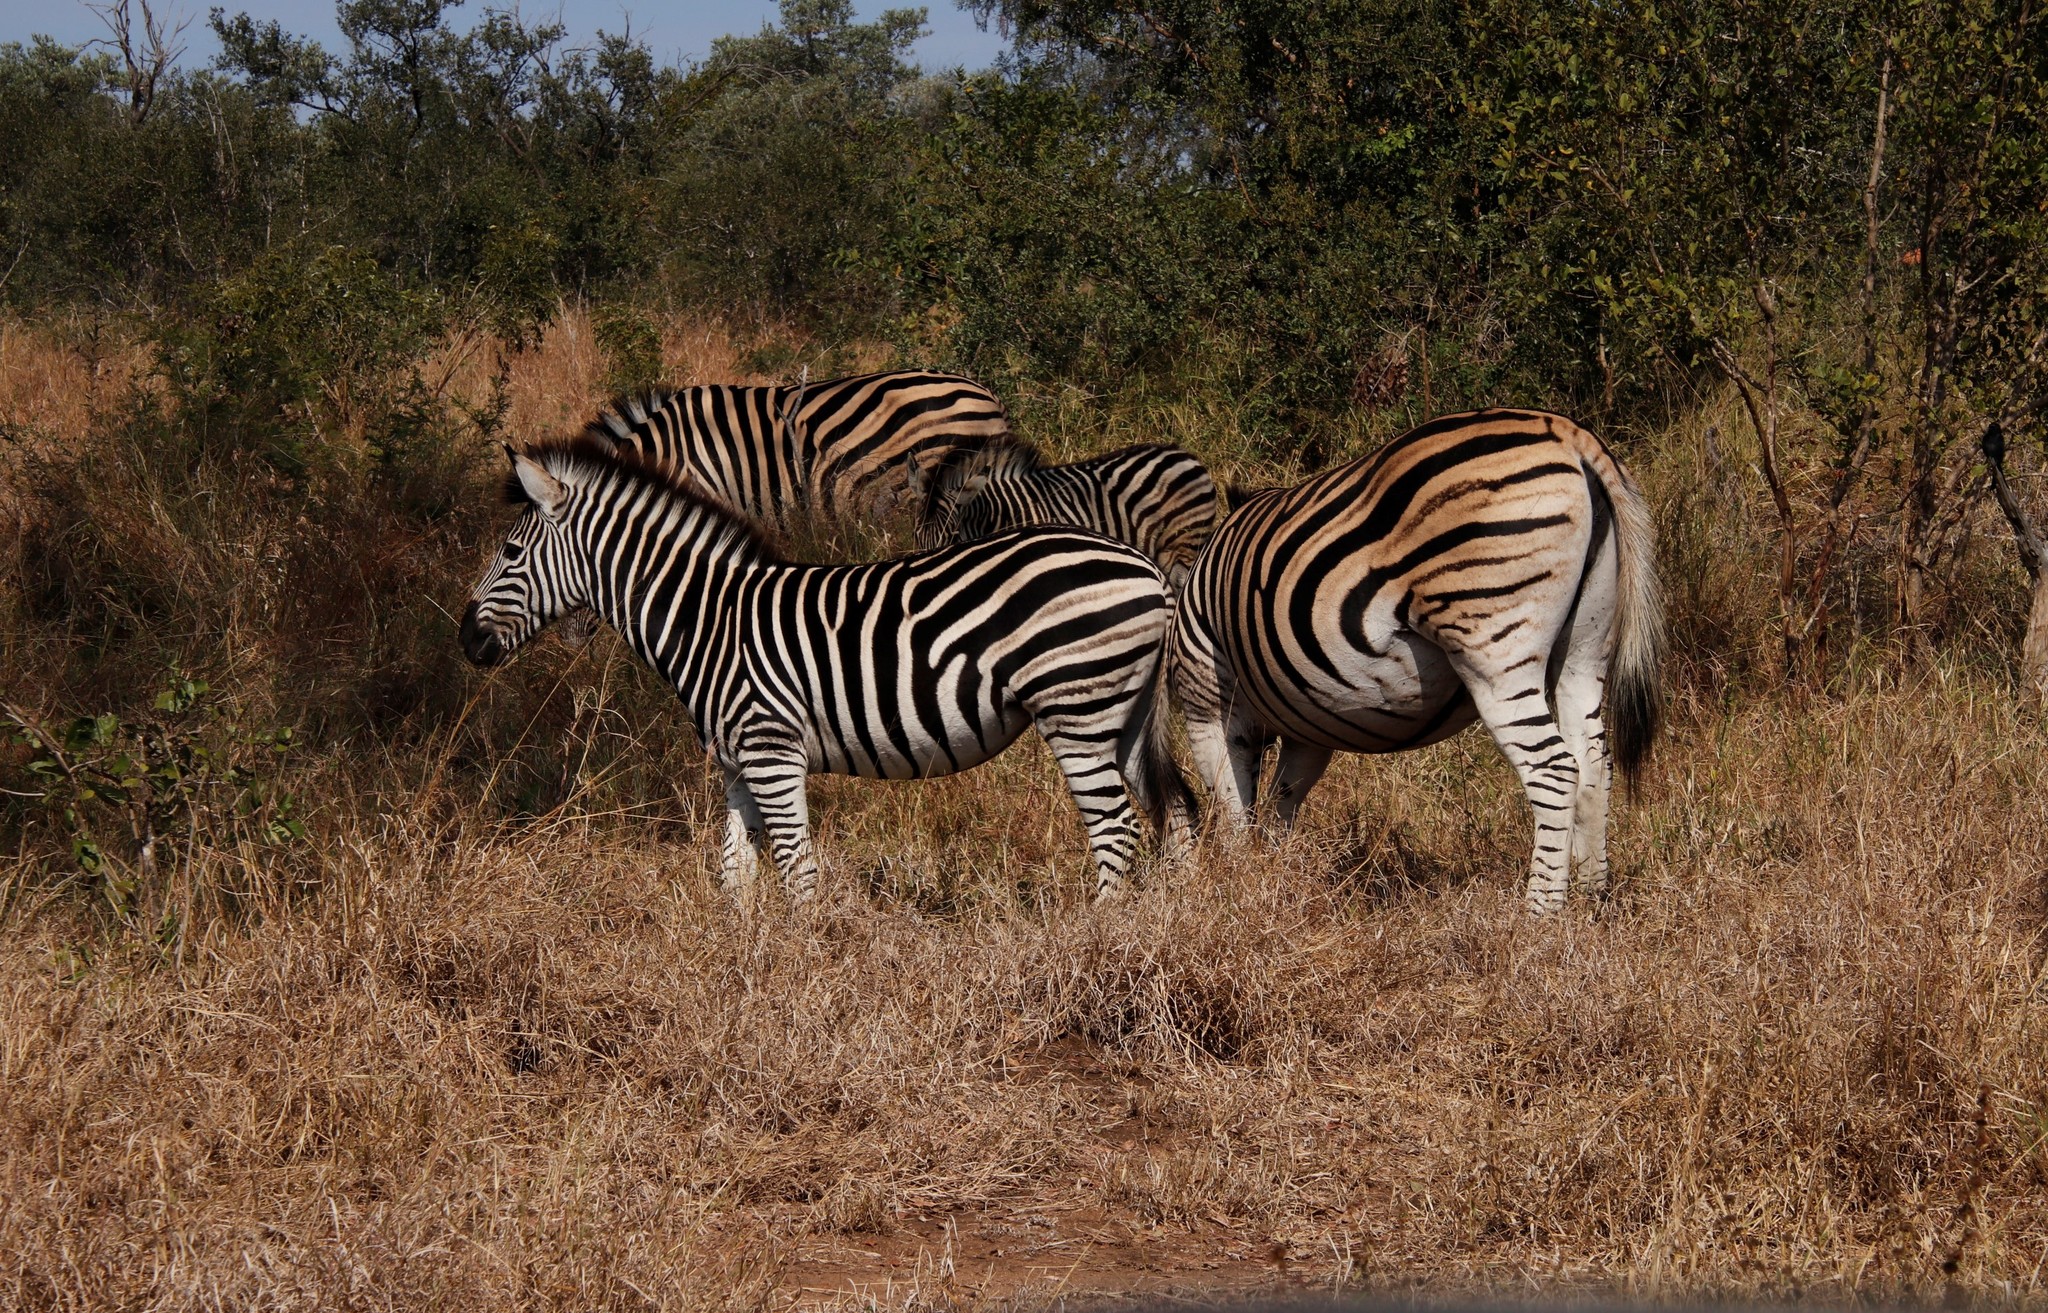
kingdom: Animalia
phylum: Chordata
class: Mammalia
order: Perissodactyla
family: Equidae
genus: Equus
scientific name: Equus quagga
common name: Plains zebra
